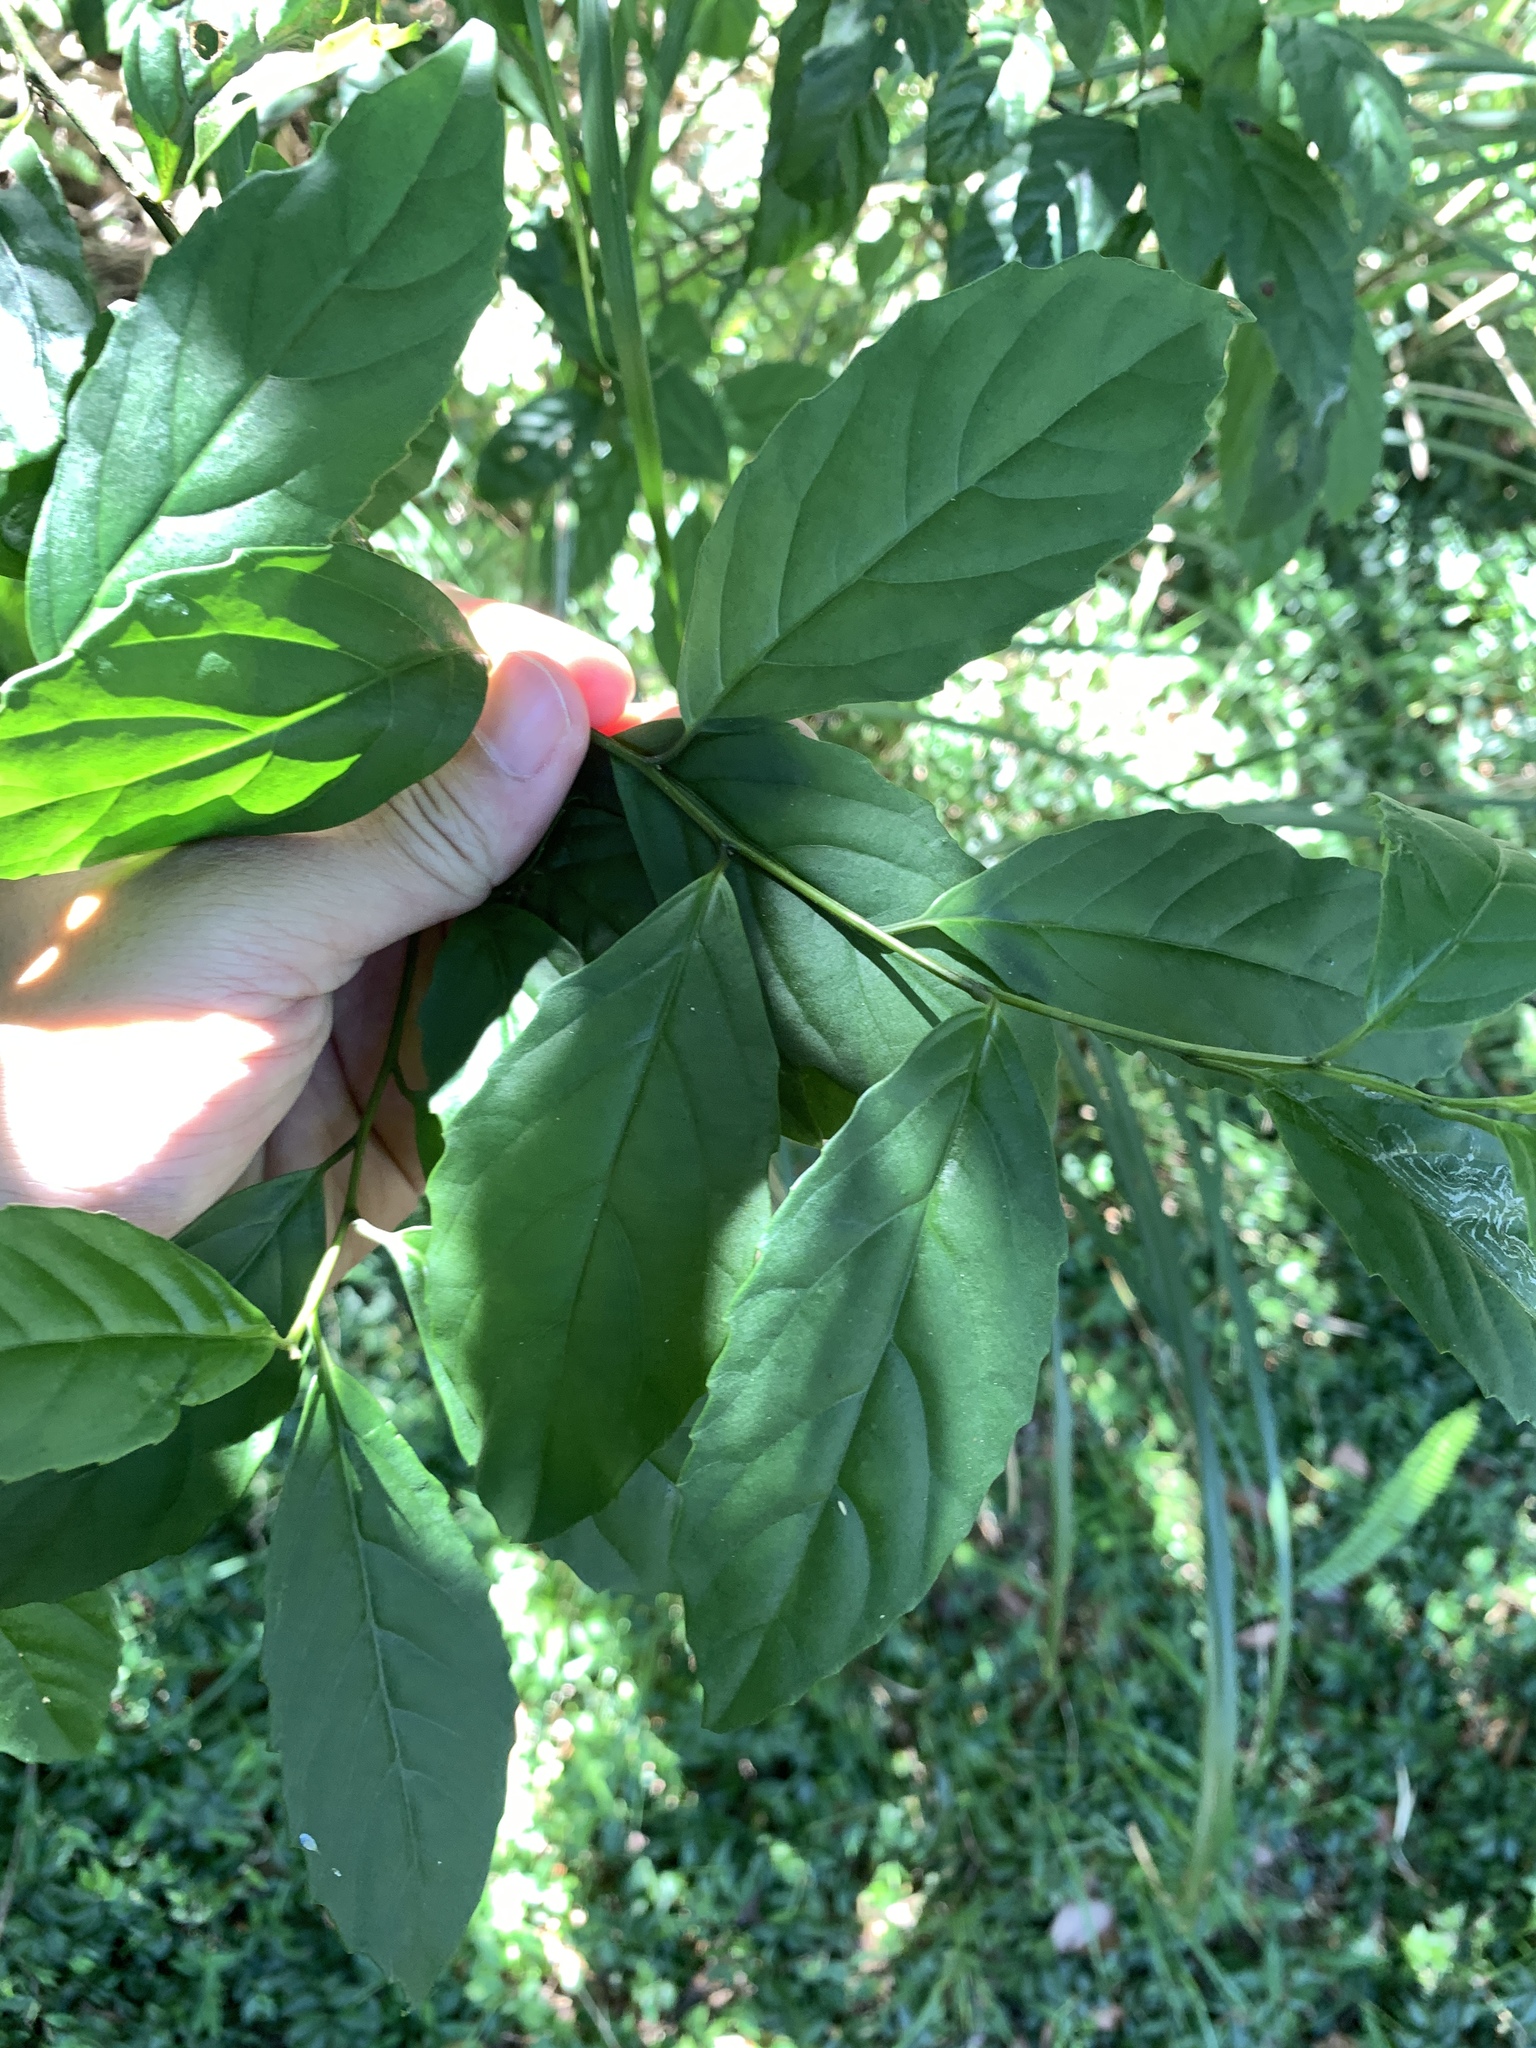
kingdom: Plantae
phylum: Tracheophyta
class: Magnoliopsida
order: Ericales
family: Primulaceae
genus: Maesa
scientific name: Maesa perlaria
